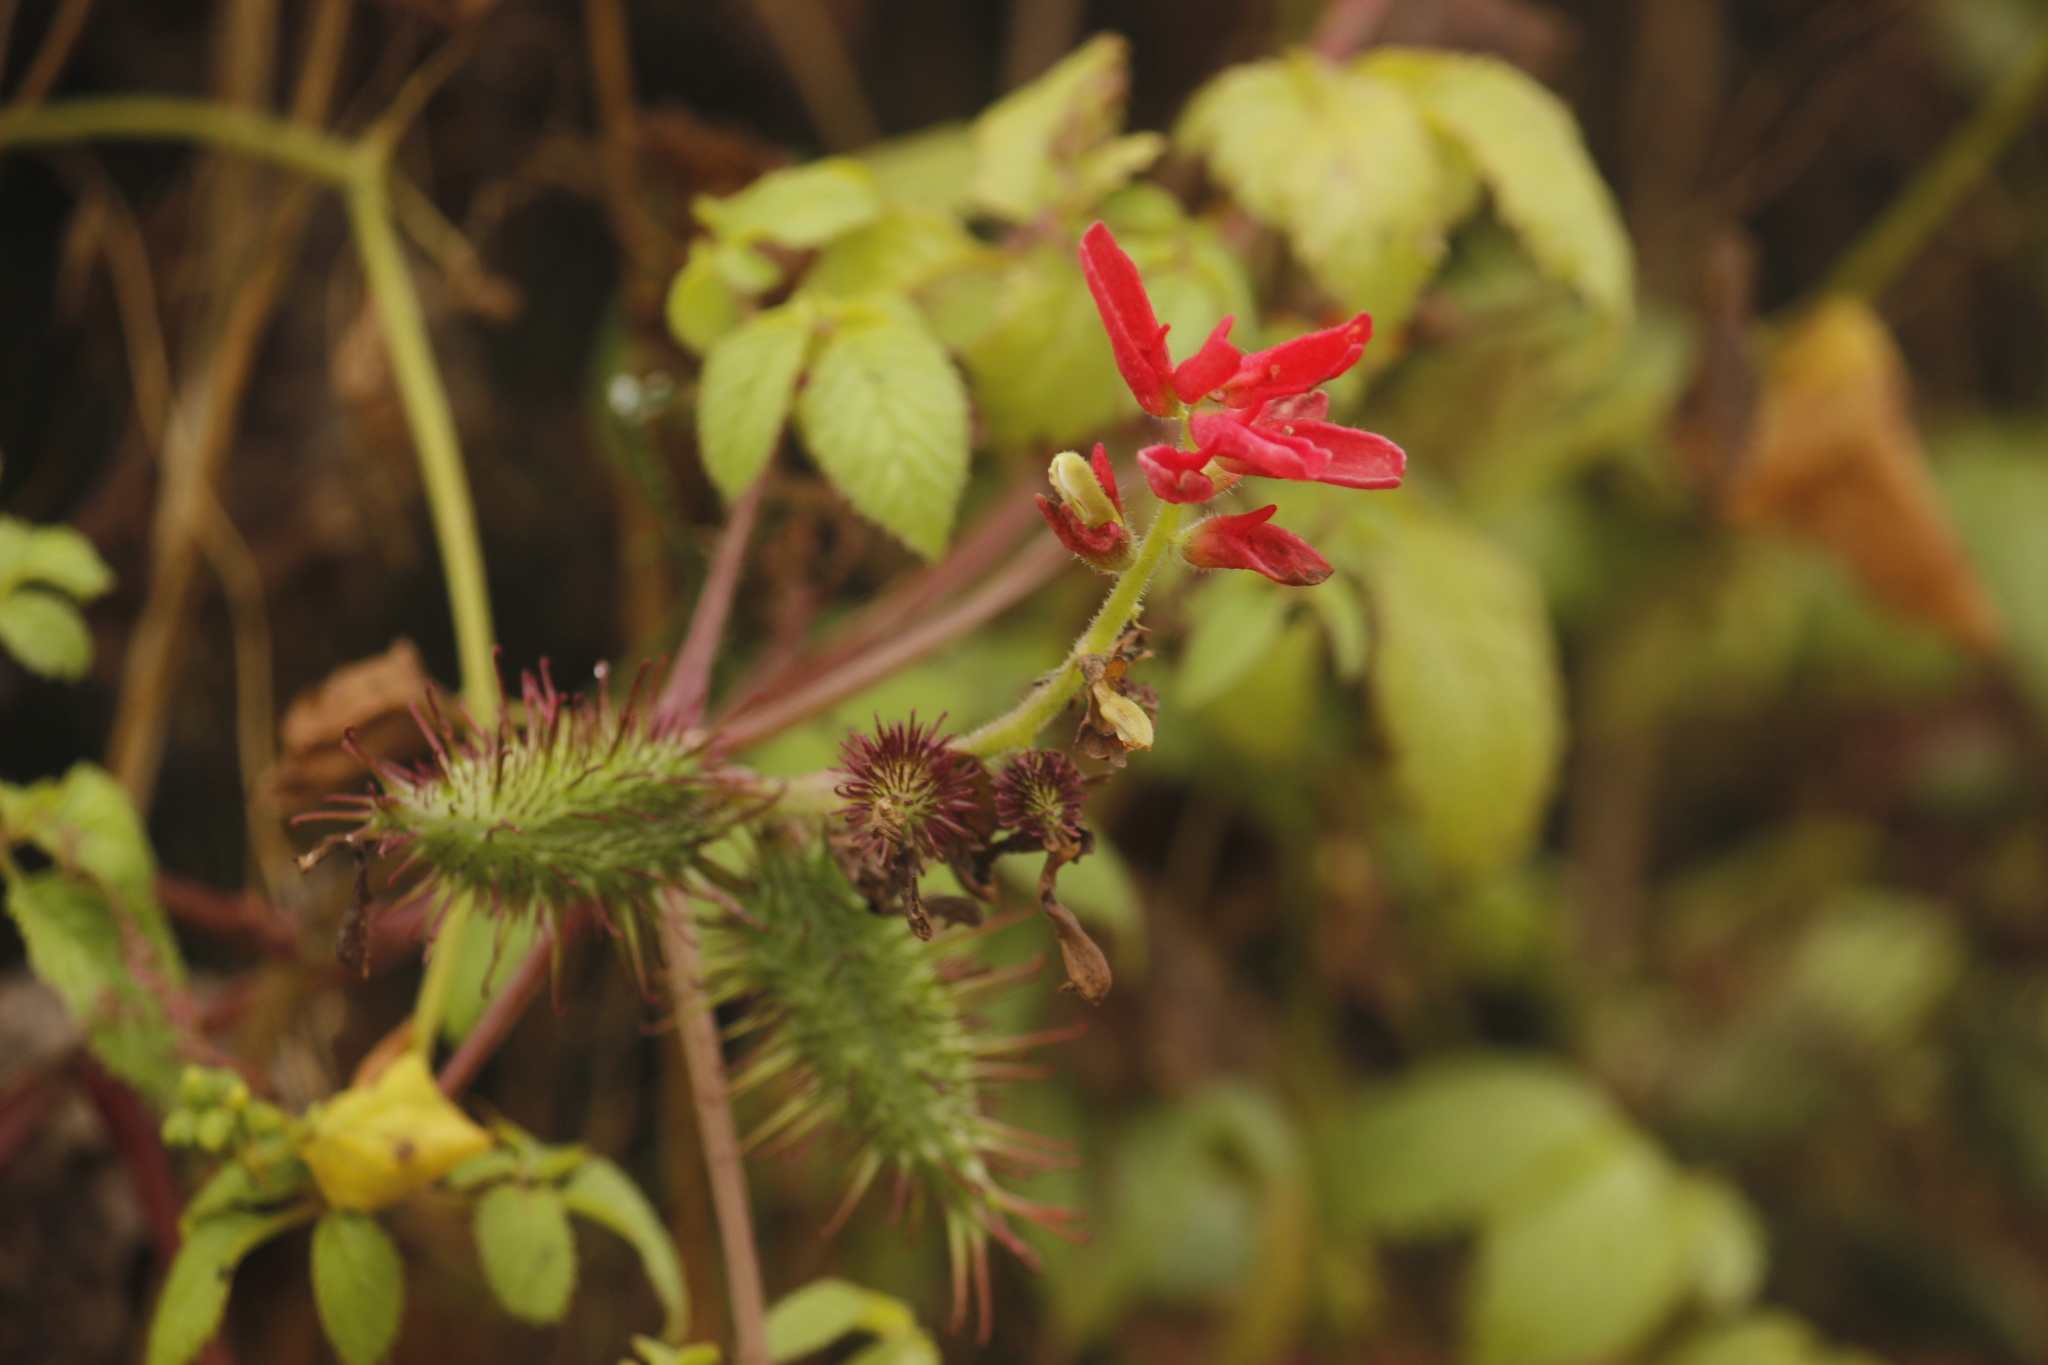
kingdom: Plantae
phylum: Tracheophyta
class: Magnoliopsida
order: Lamiales
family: Bignoniaceae
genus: Tourrettia
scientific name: Tourrettia lappacea
